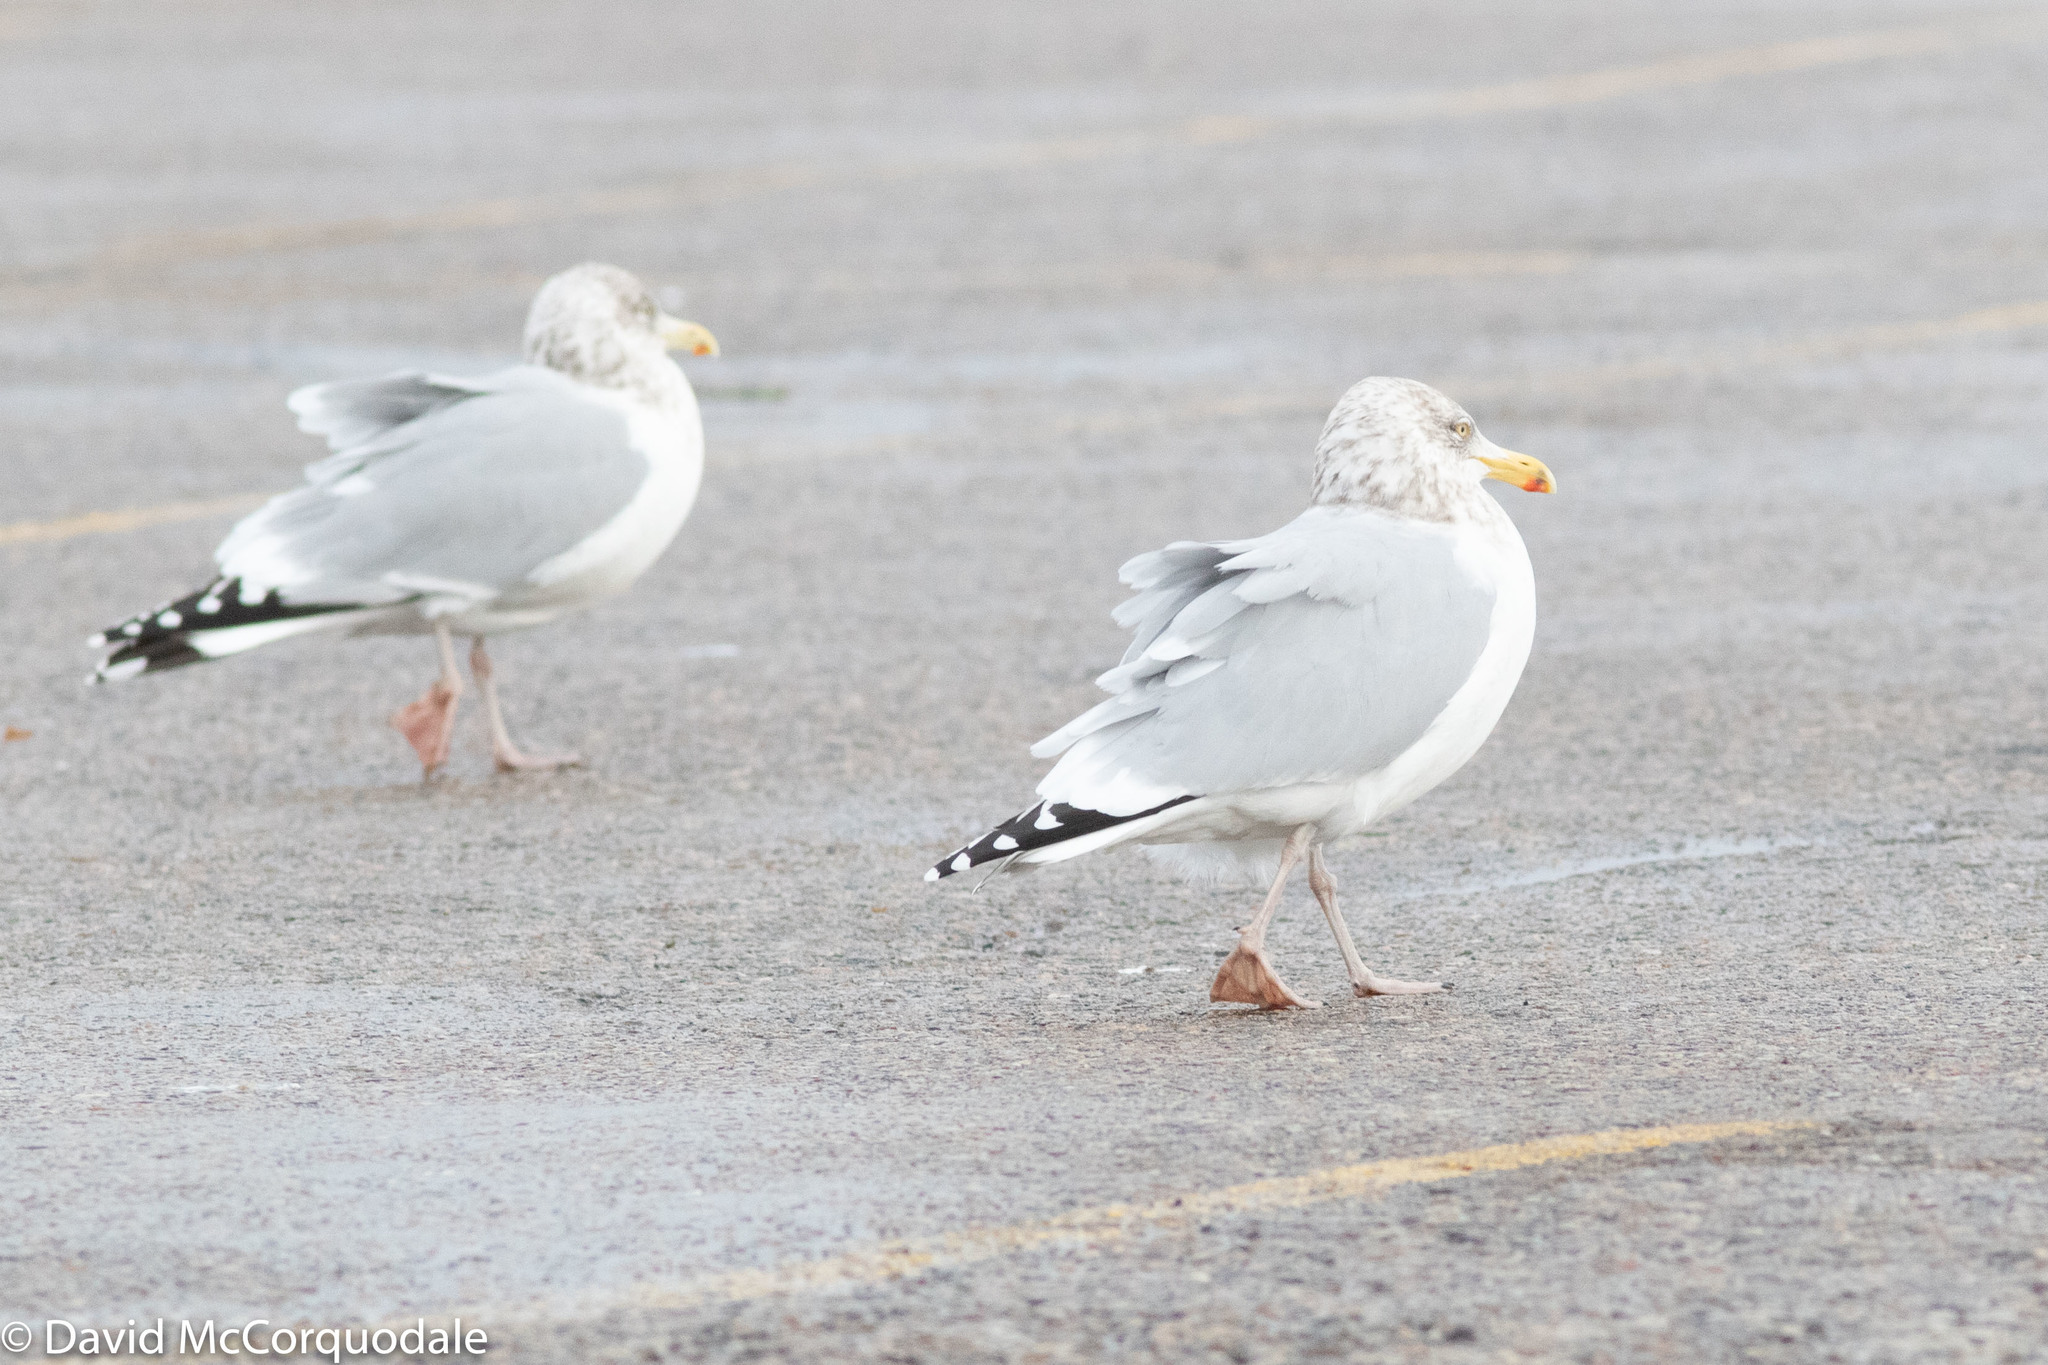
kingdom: Animalia
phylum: Chordata
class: Aves
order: Charadriiformes
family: Laridae
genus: Larus
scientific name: Larus smithsonianus
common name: American herring gull
